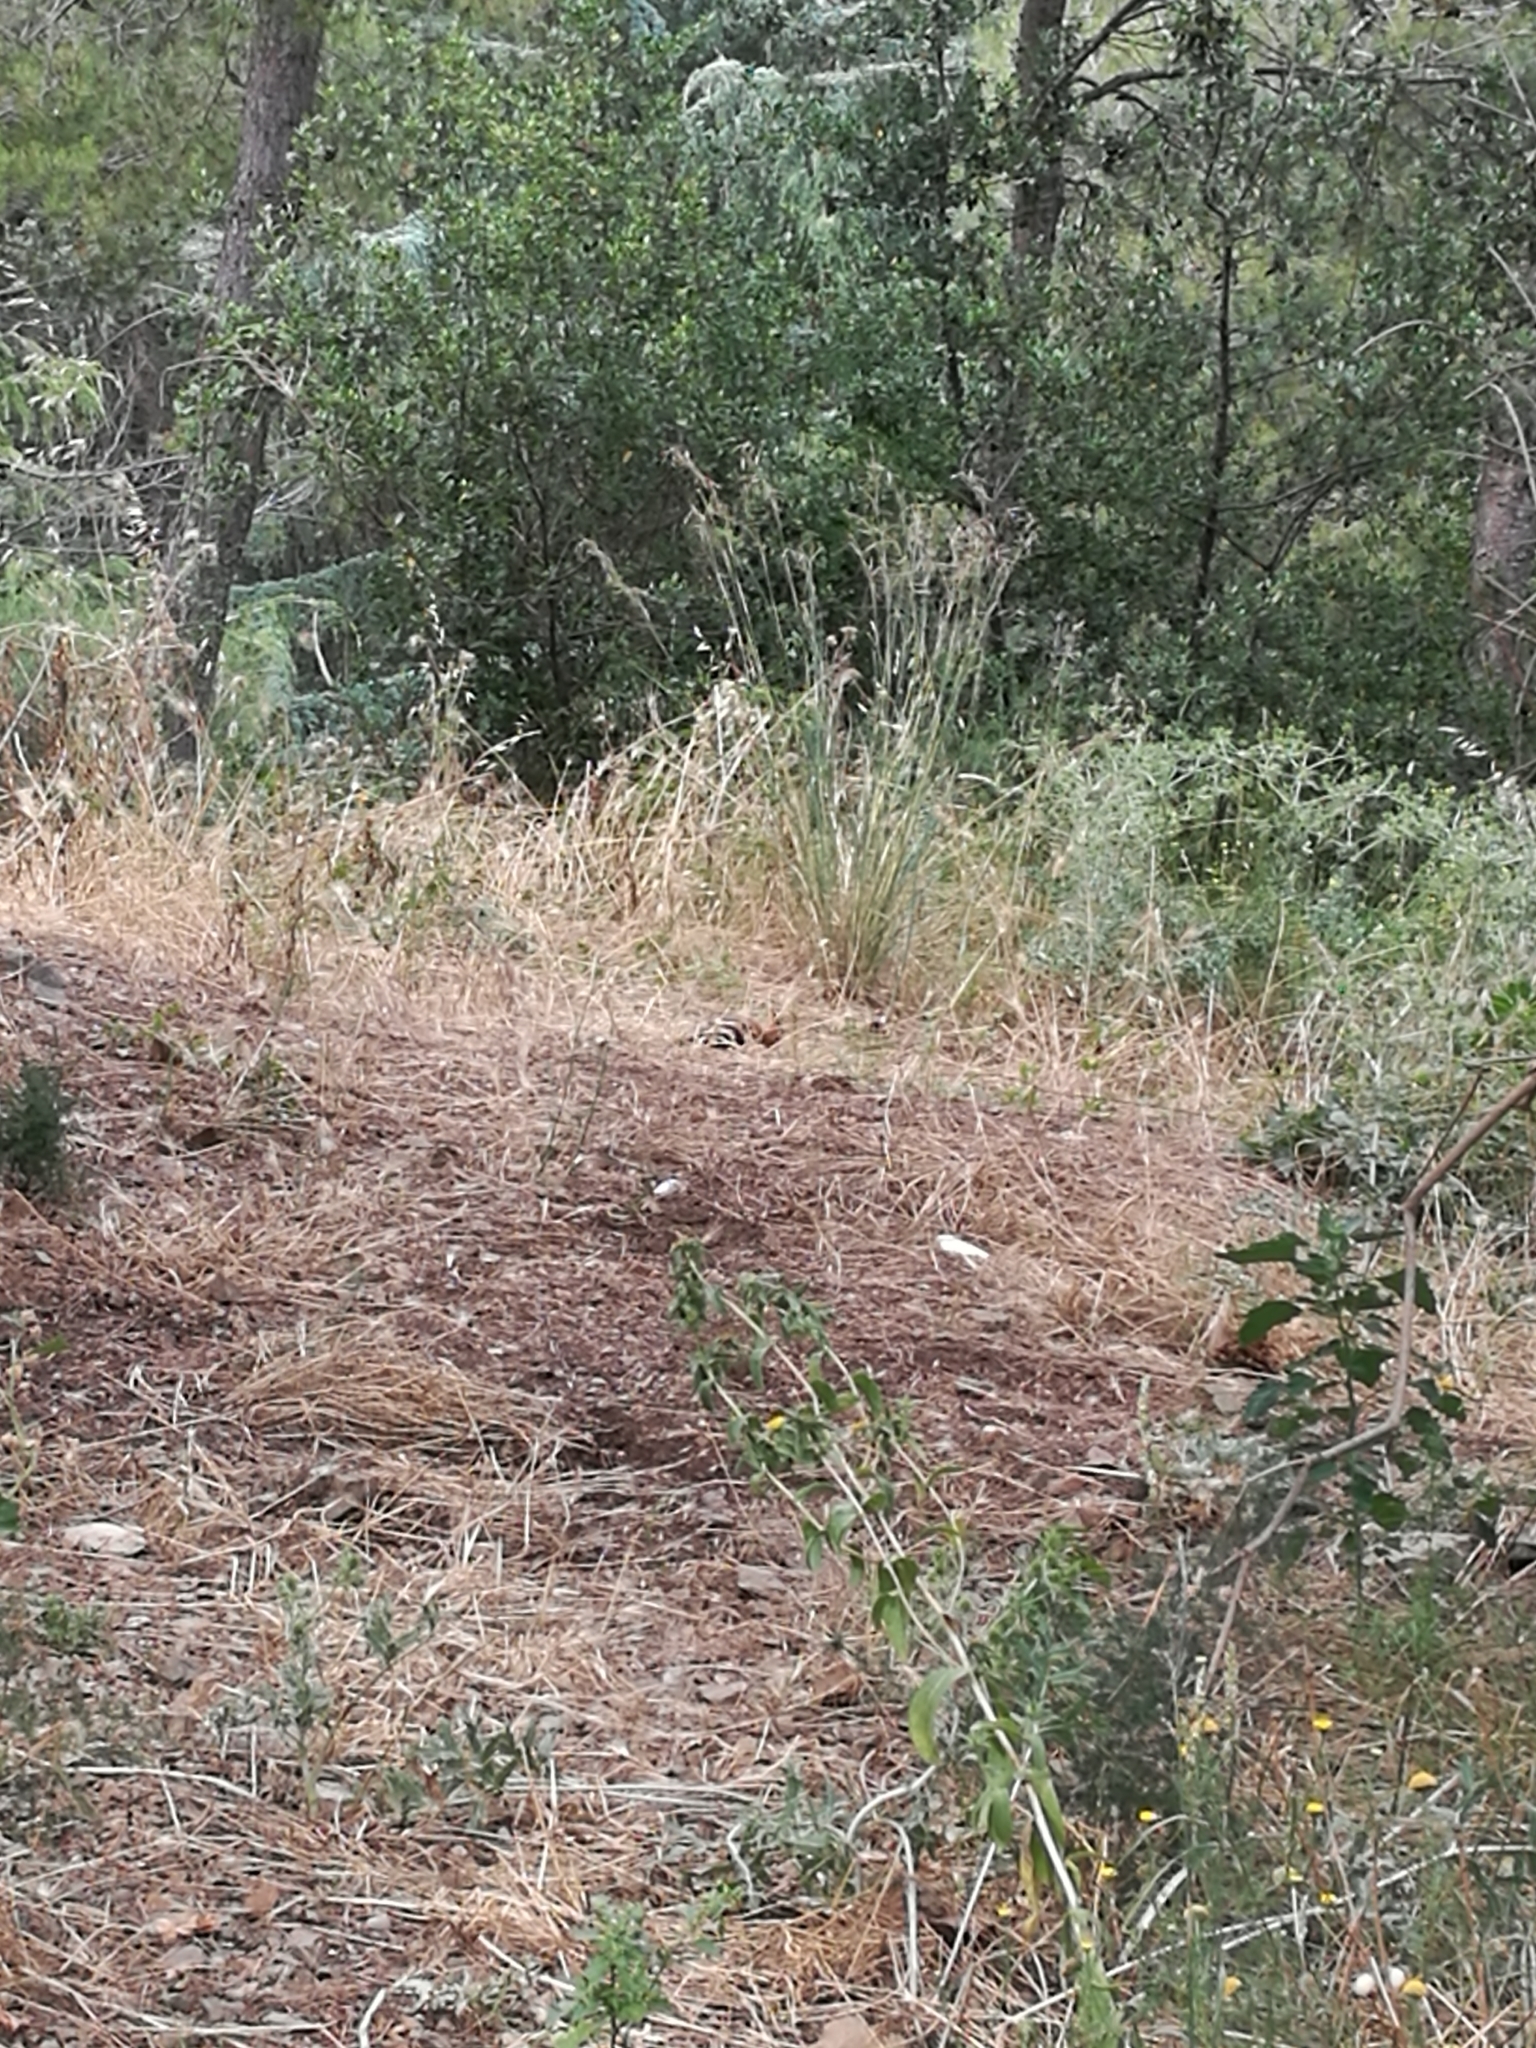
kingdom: Animalia
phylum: Chordata
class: Aves
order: Bucerotiformes
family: Upupidae
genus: Upupa
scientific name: Upupa epops
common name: Eurasian hoopoe
